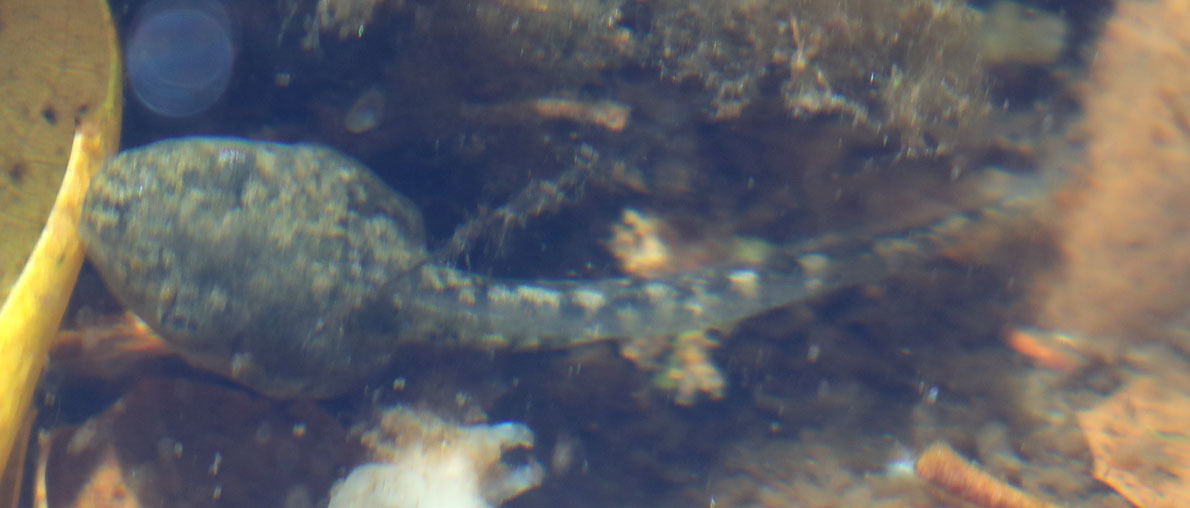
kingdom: Animalia
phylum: Chordata
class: Amphibia
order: Anura
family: Hylidae
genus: Pseudacris
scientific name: Pseudacris regilla
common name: Pacific chorus frog
